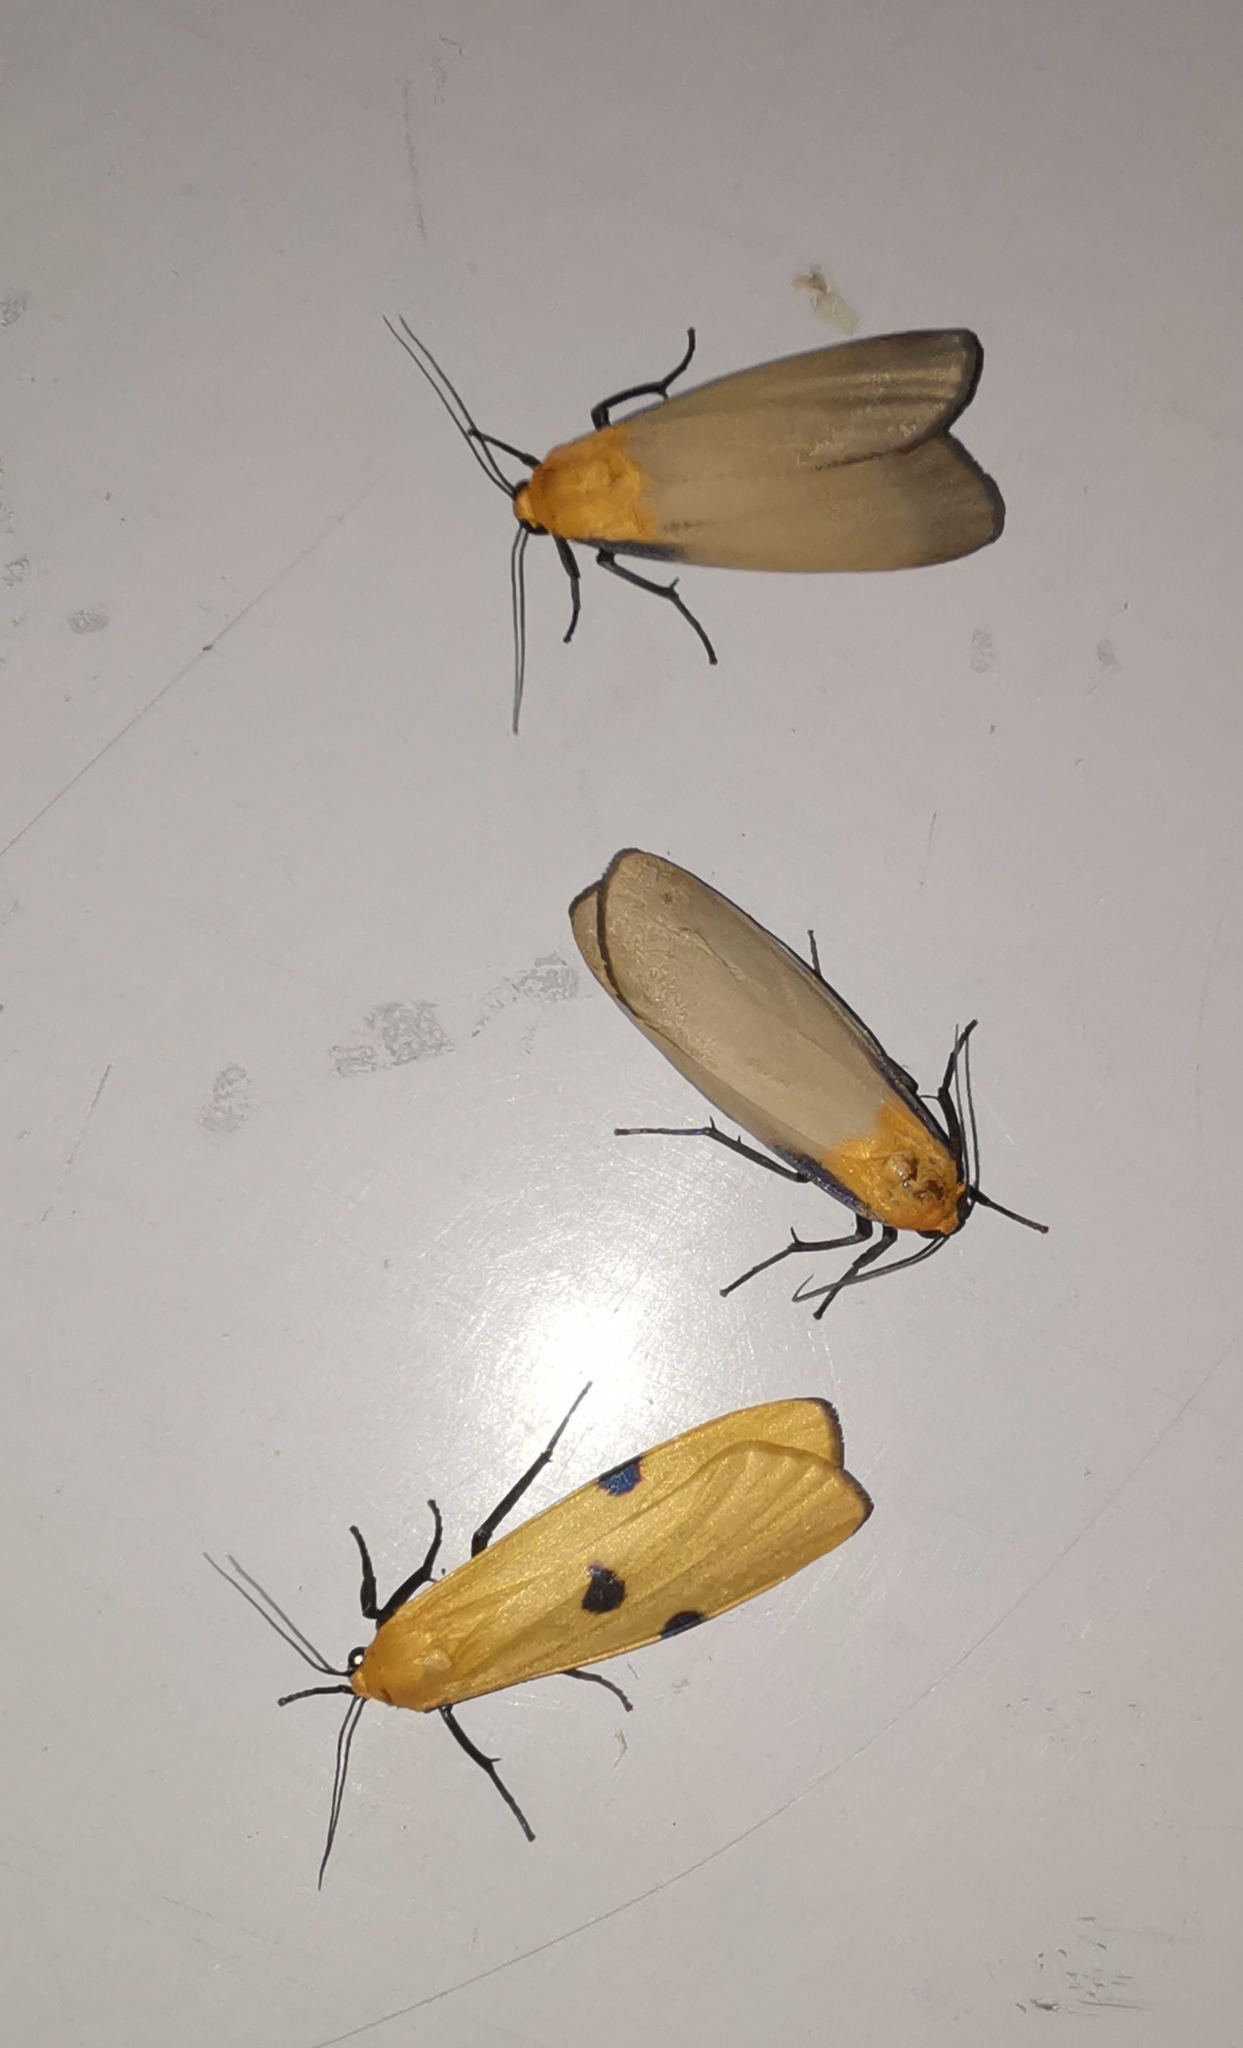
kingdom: Animalia
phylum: Arthropoda
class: Insecta
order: Lepidoptera
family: Erebidae
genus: Lithosia
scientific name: Lithosia quadra
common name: Four-spotted footman
